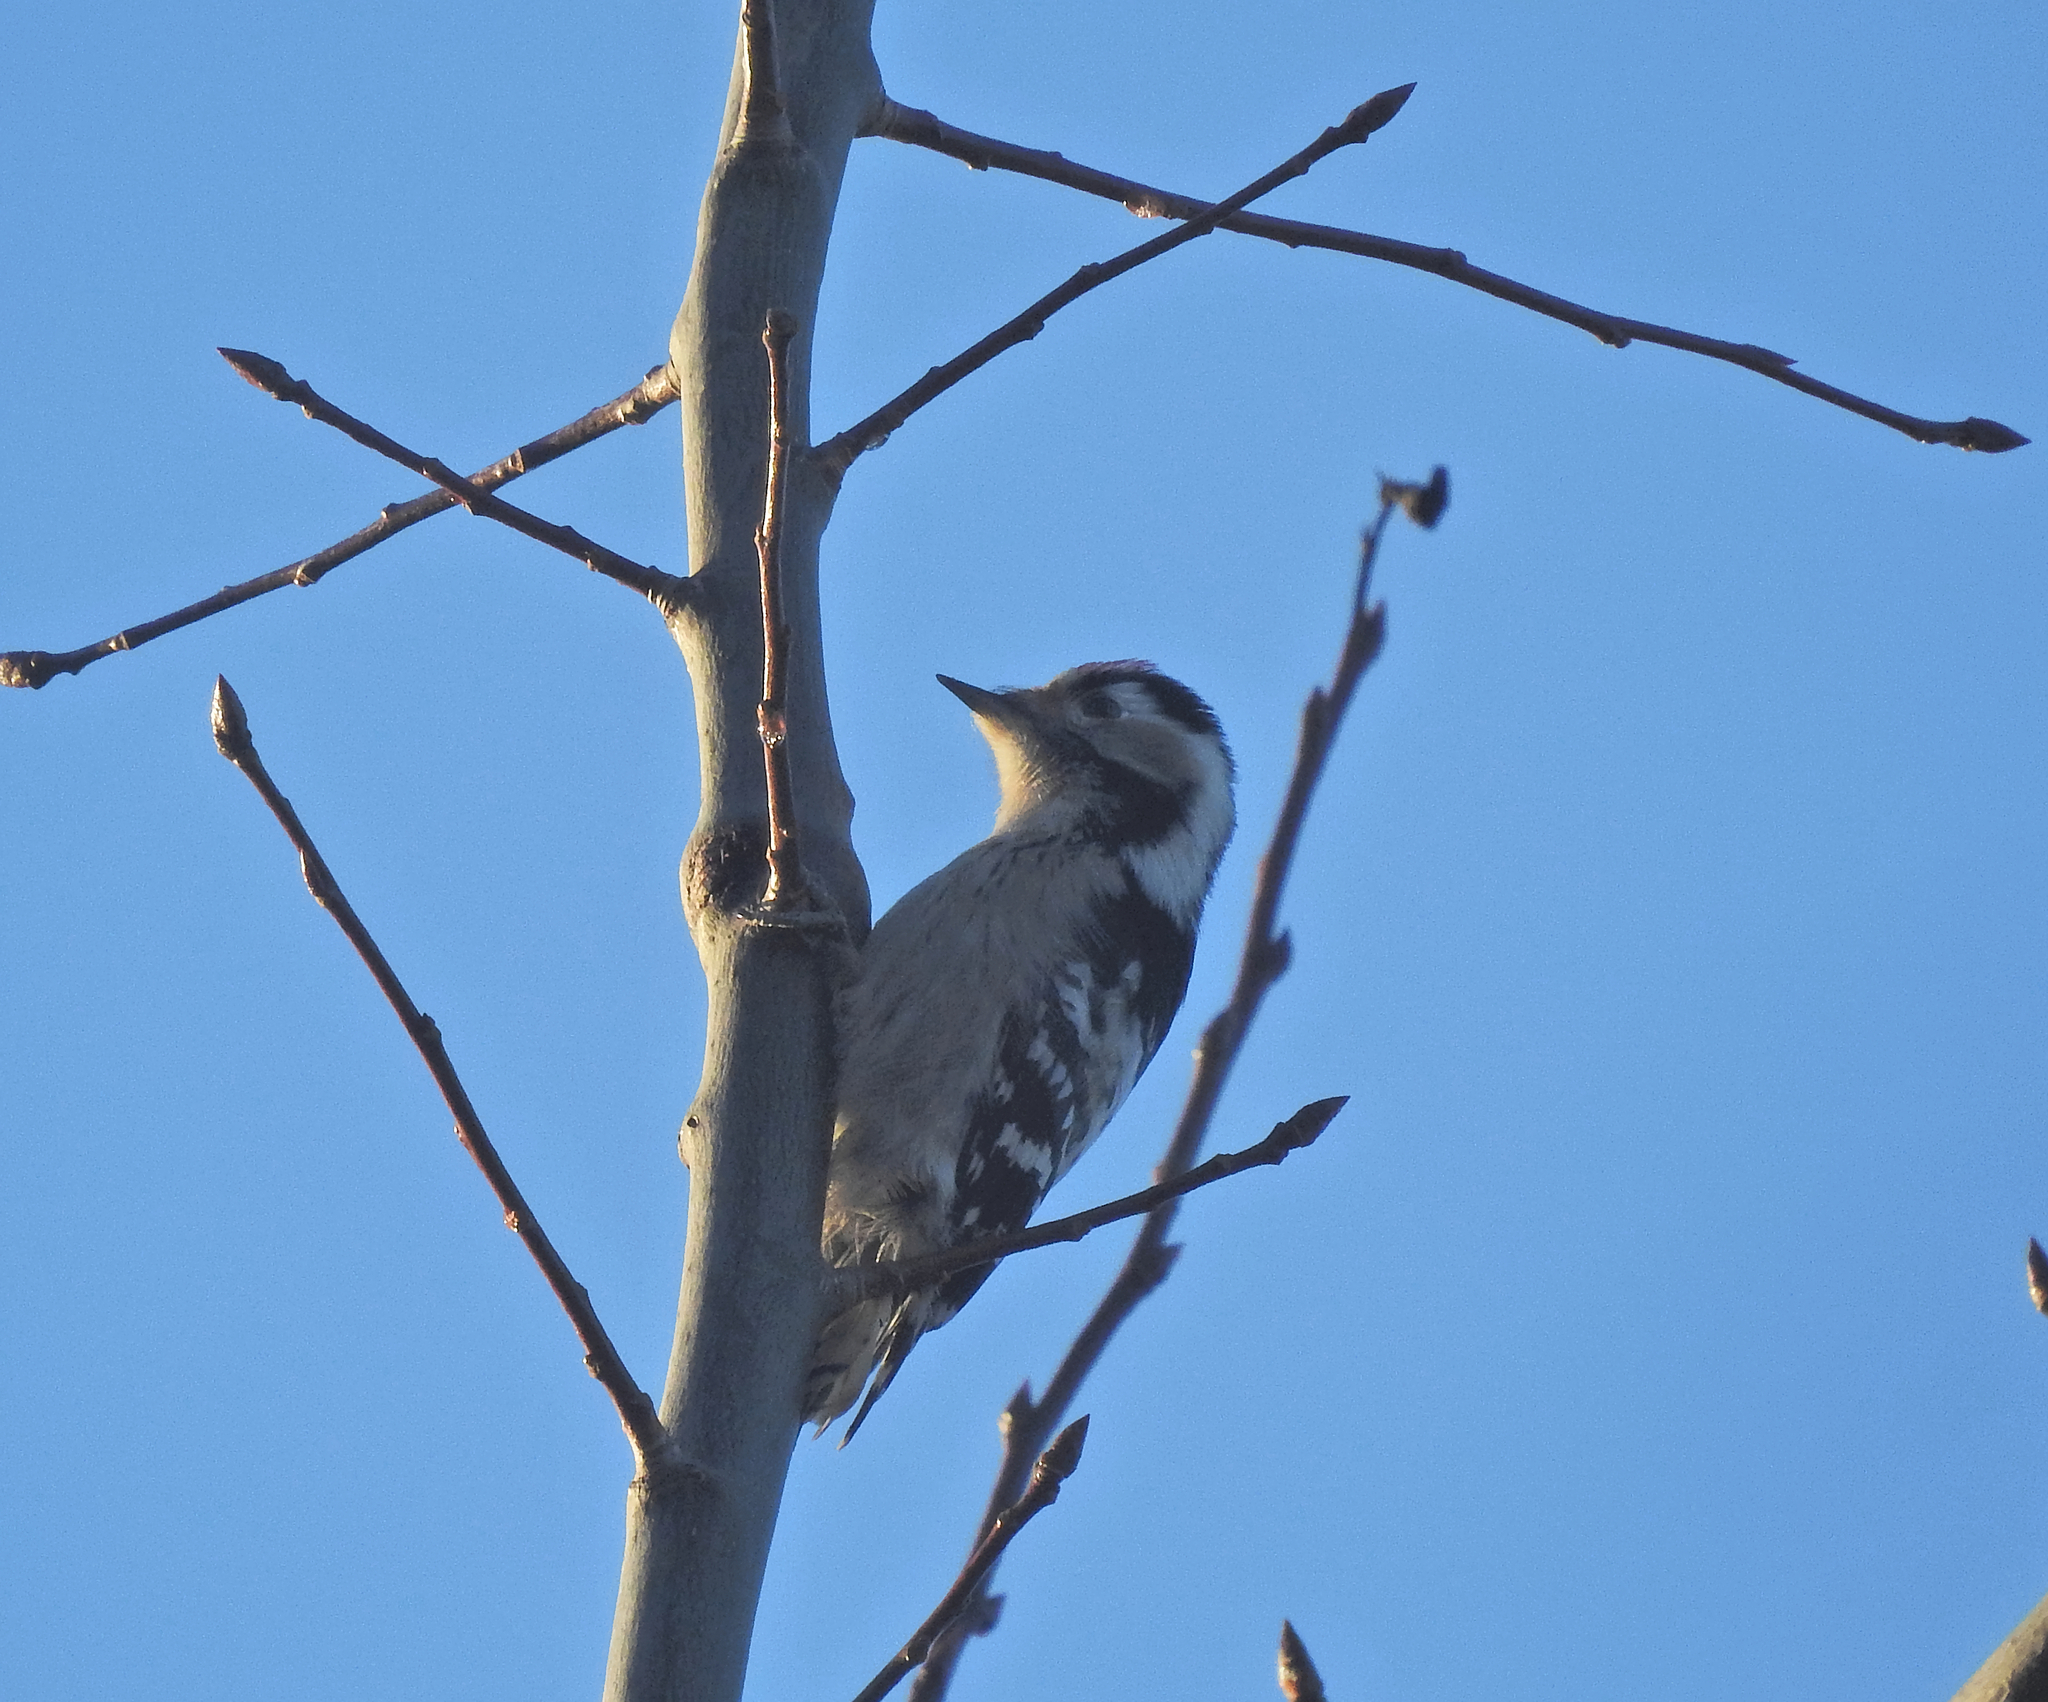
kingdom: Animalia
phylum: Chordata
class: Aves
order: Piciformes
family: Picidae
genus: Dryobates
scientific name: Dryobates minor
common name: Lesser spotted woodpecker
